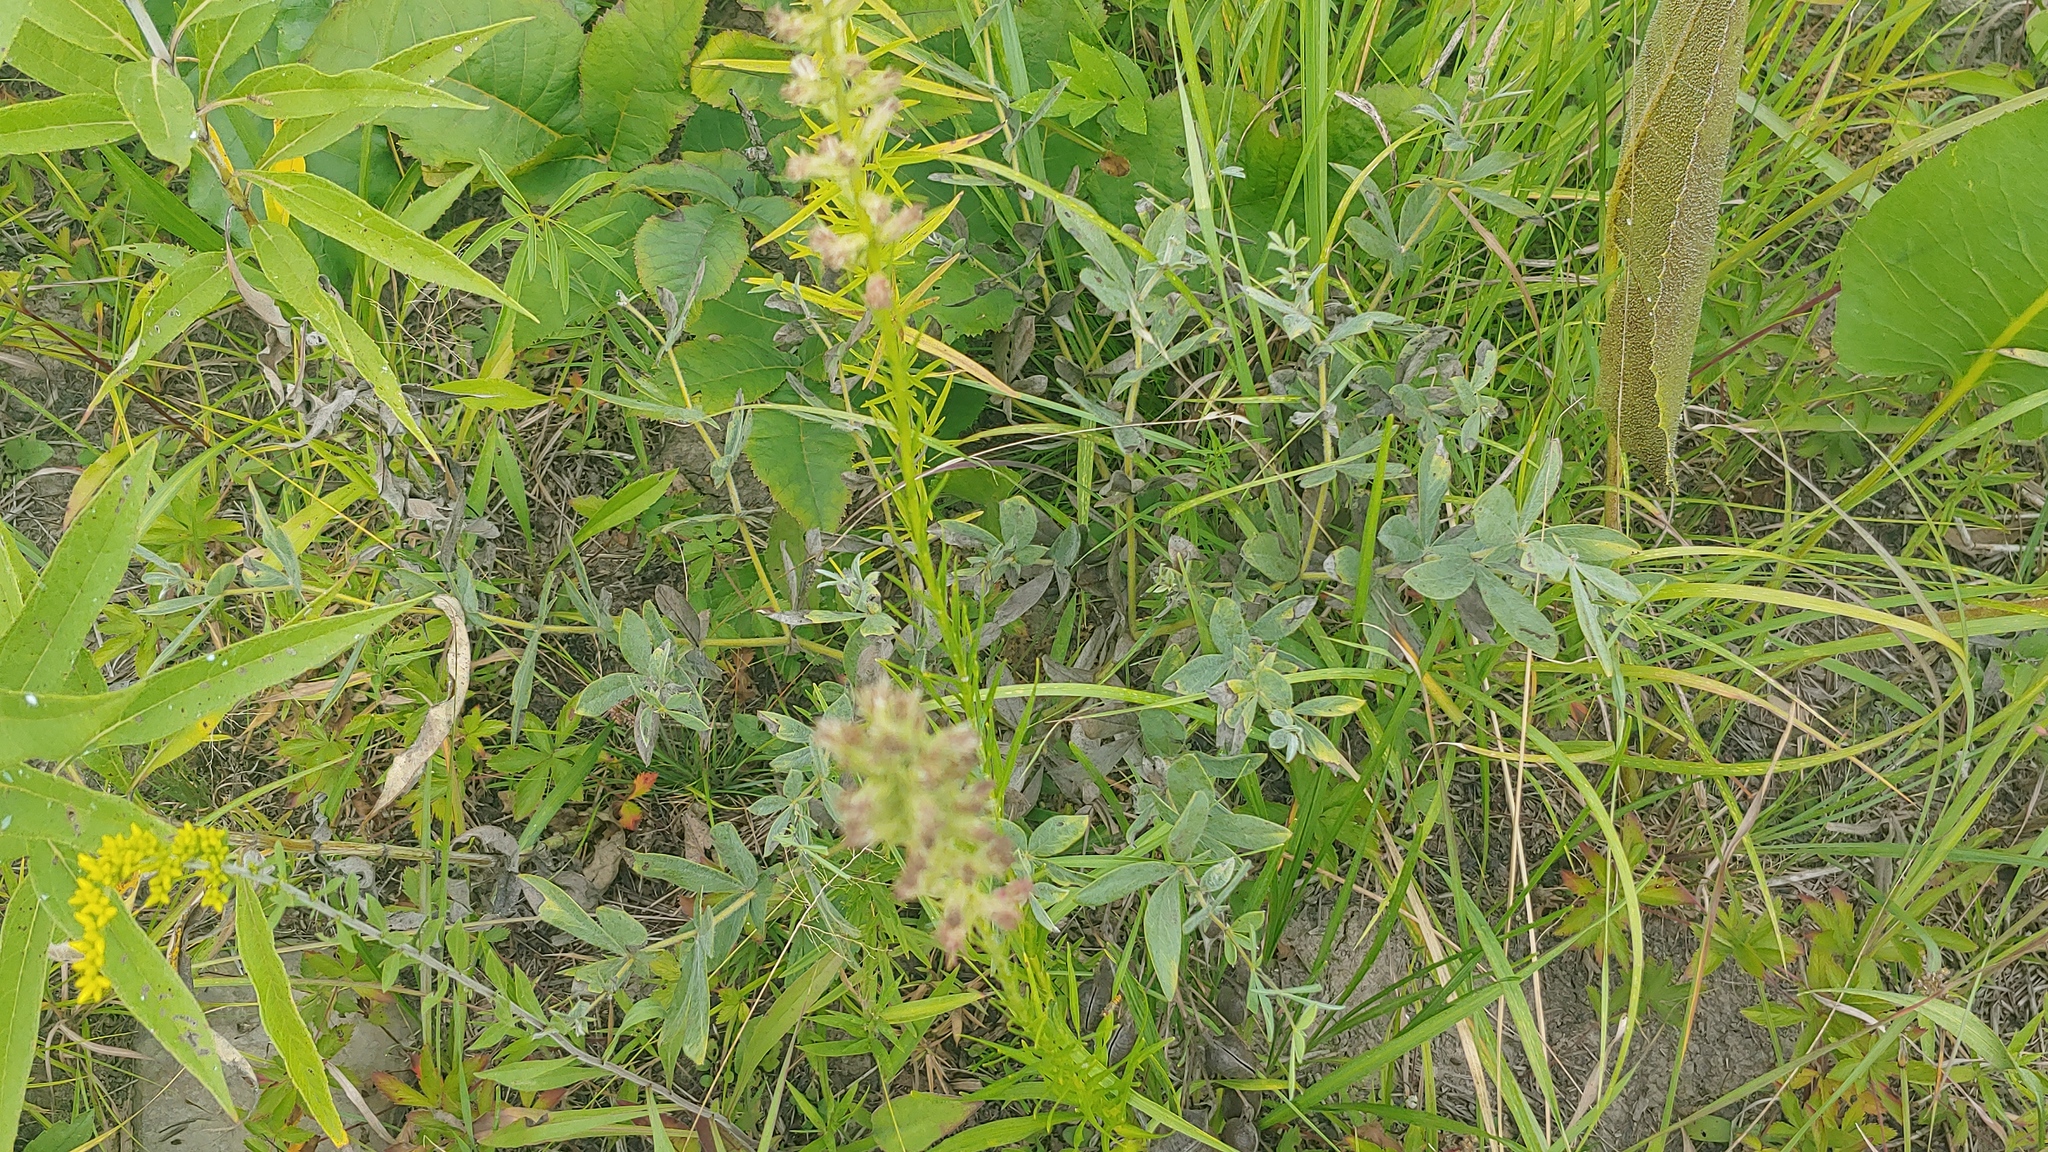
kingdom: Plantae
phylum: Tracheophyta
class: Magnoliopsida
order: Fabales
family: Fabaceae
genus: Baptisia
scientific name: Baptisia bracteata
